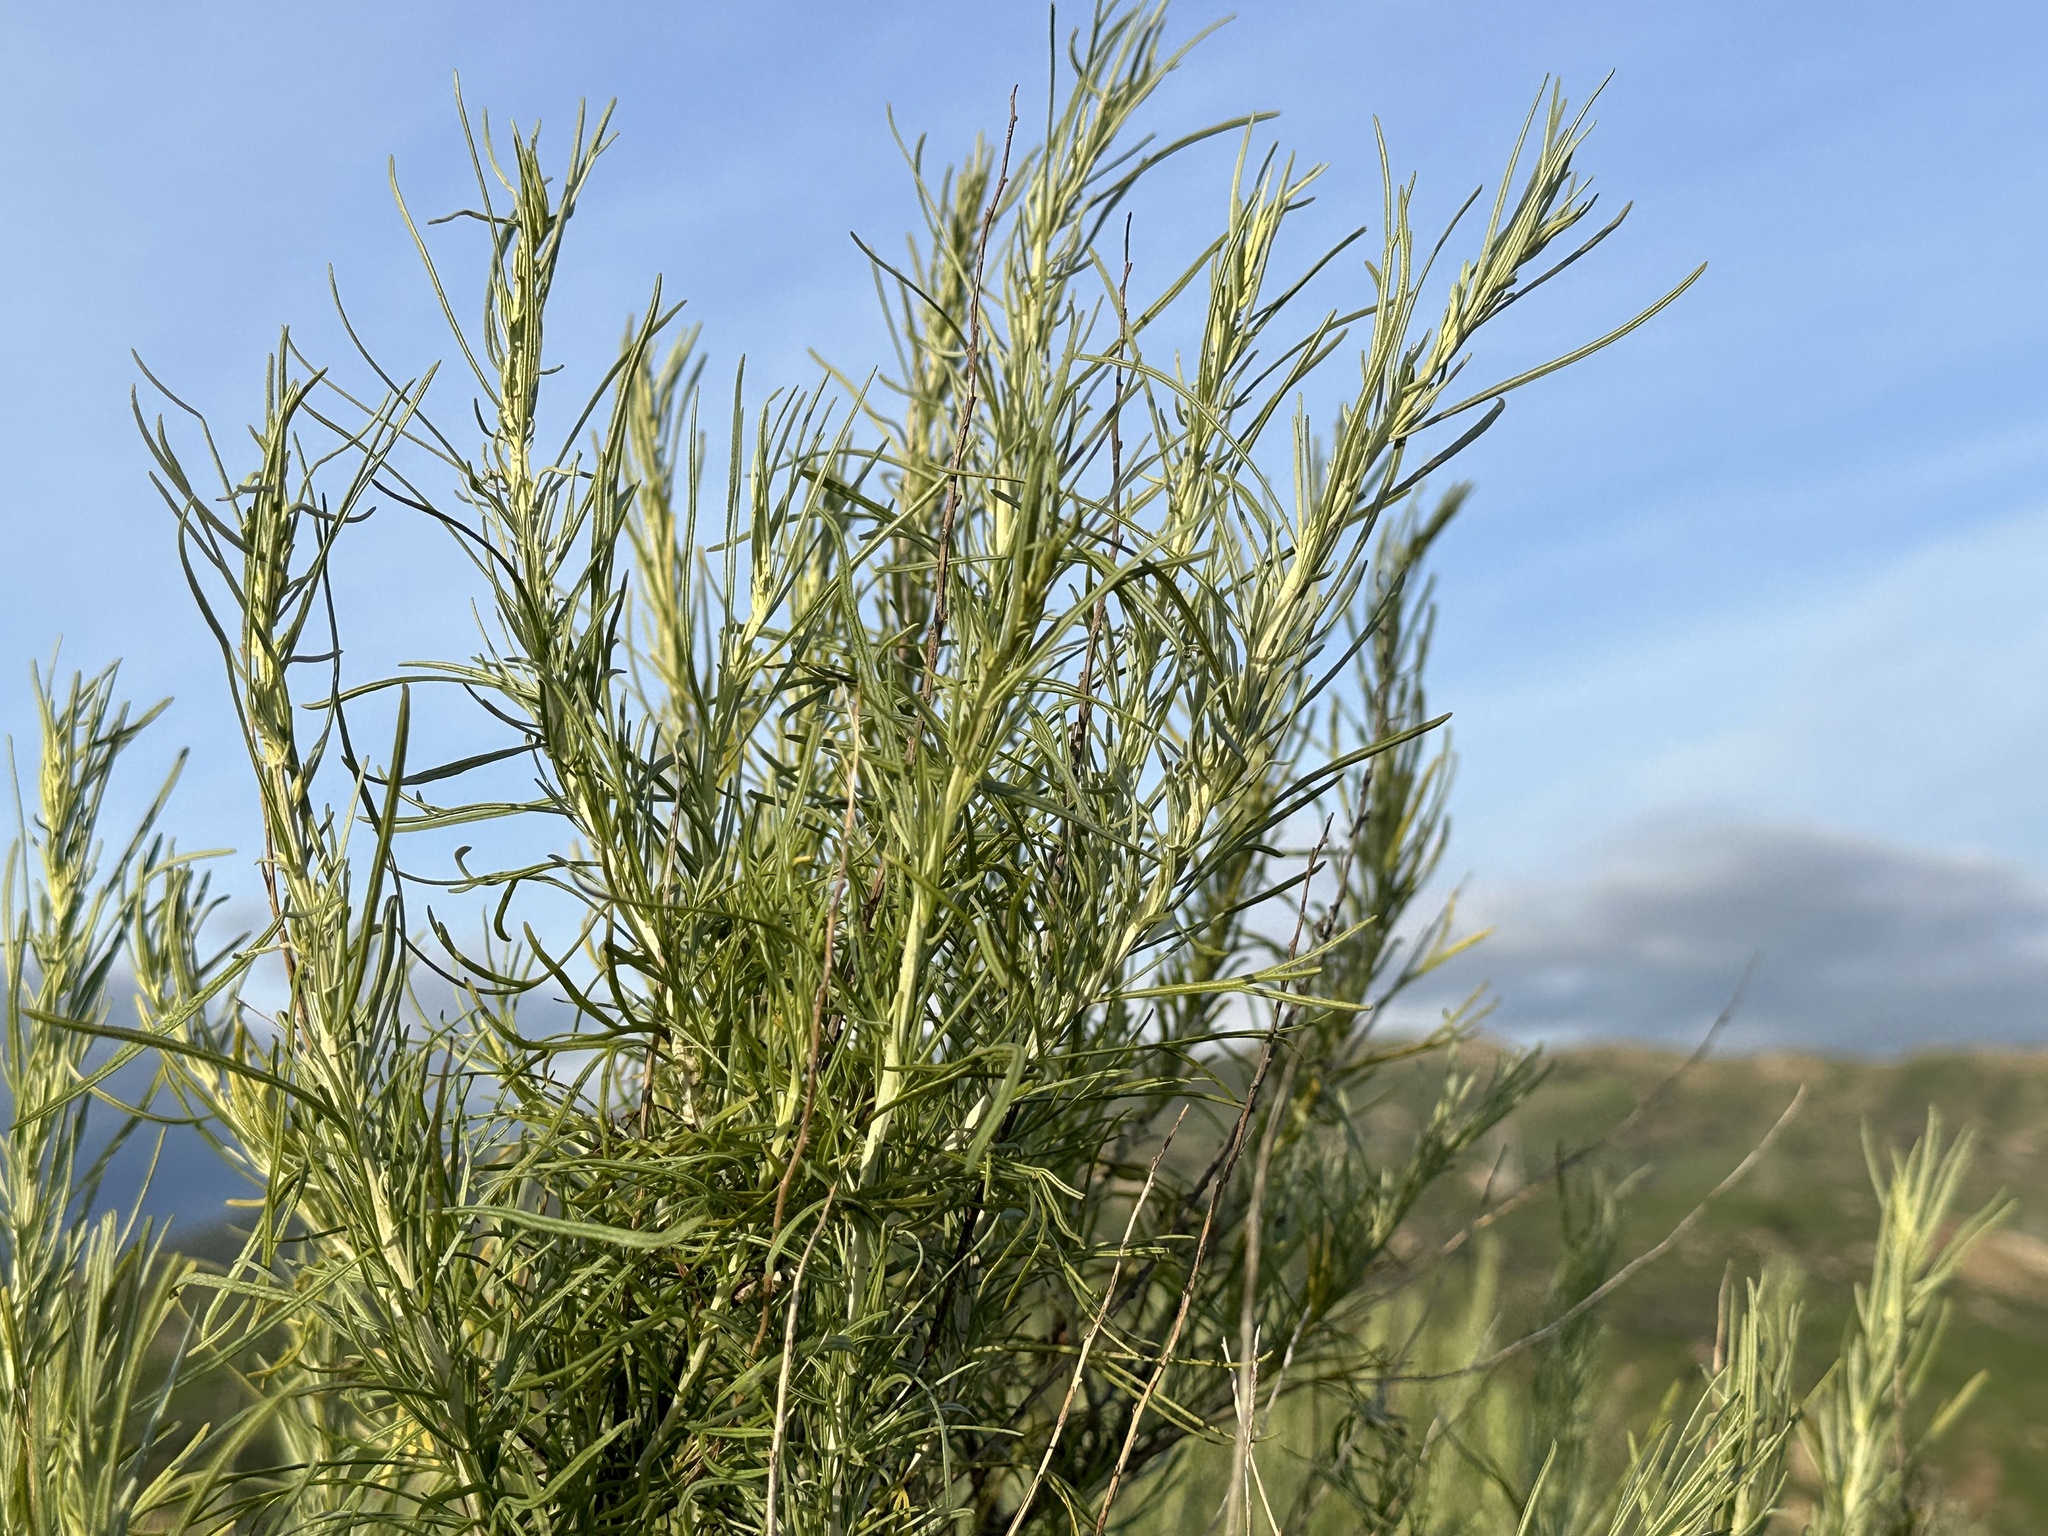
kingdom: Plantae
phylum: Tracheophyta
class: Magnoliopsida
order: Asterales
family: Asteraceae
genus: Artemisia
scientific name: Artemisia californica
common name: California sagebrush
